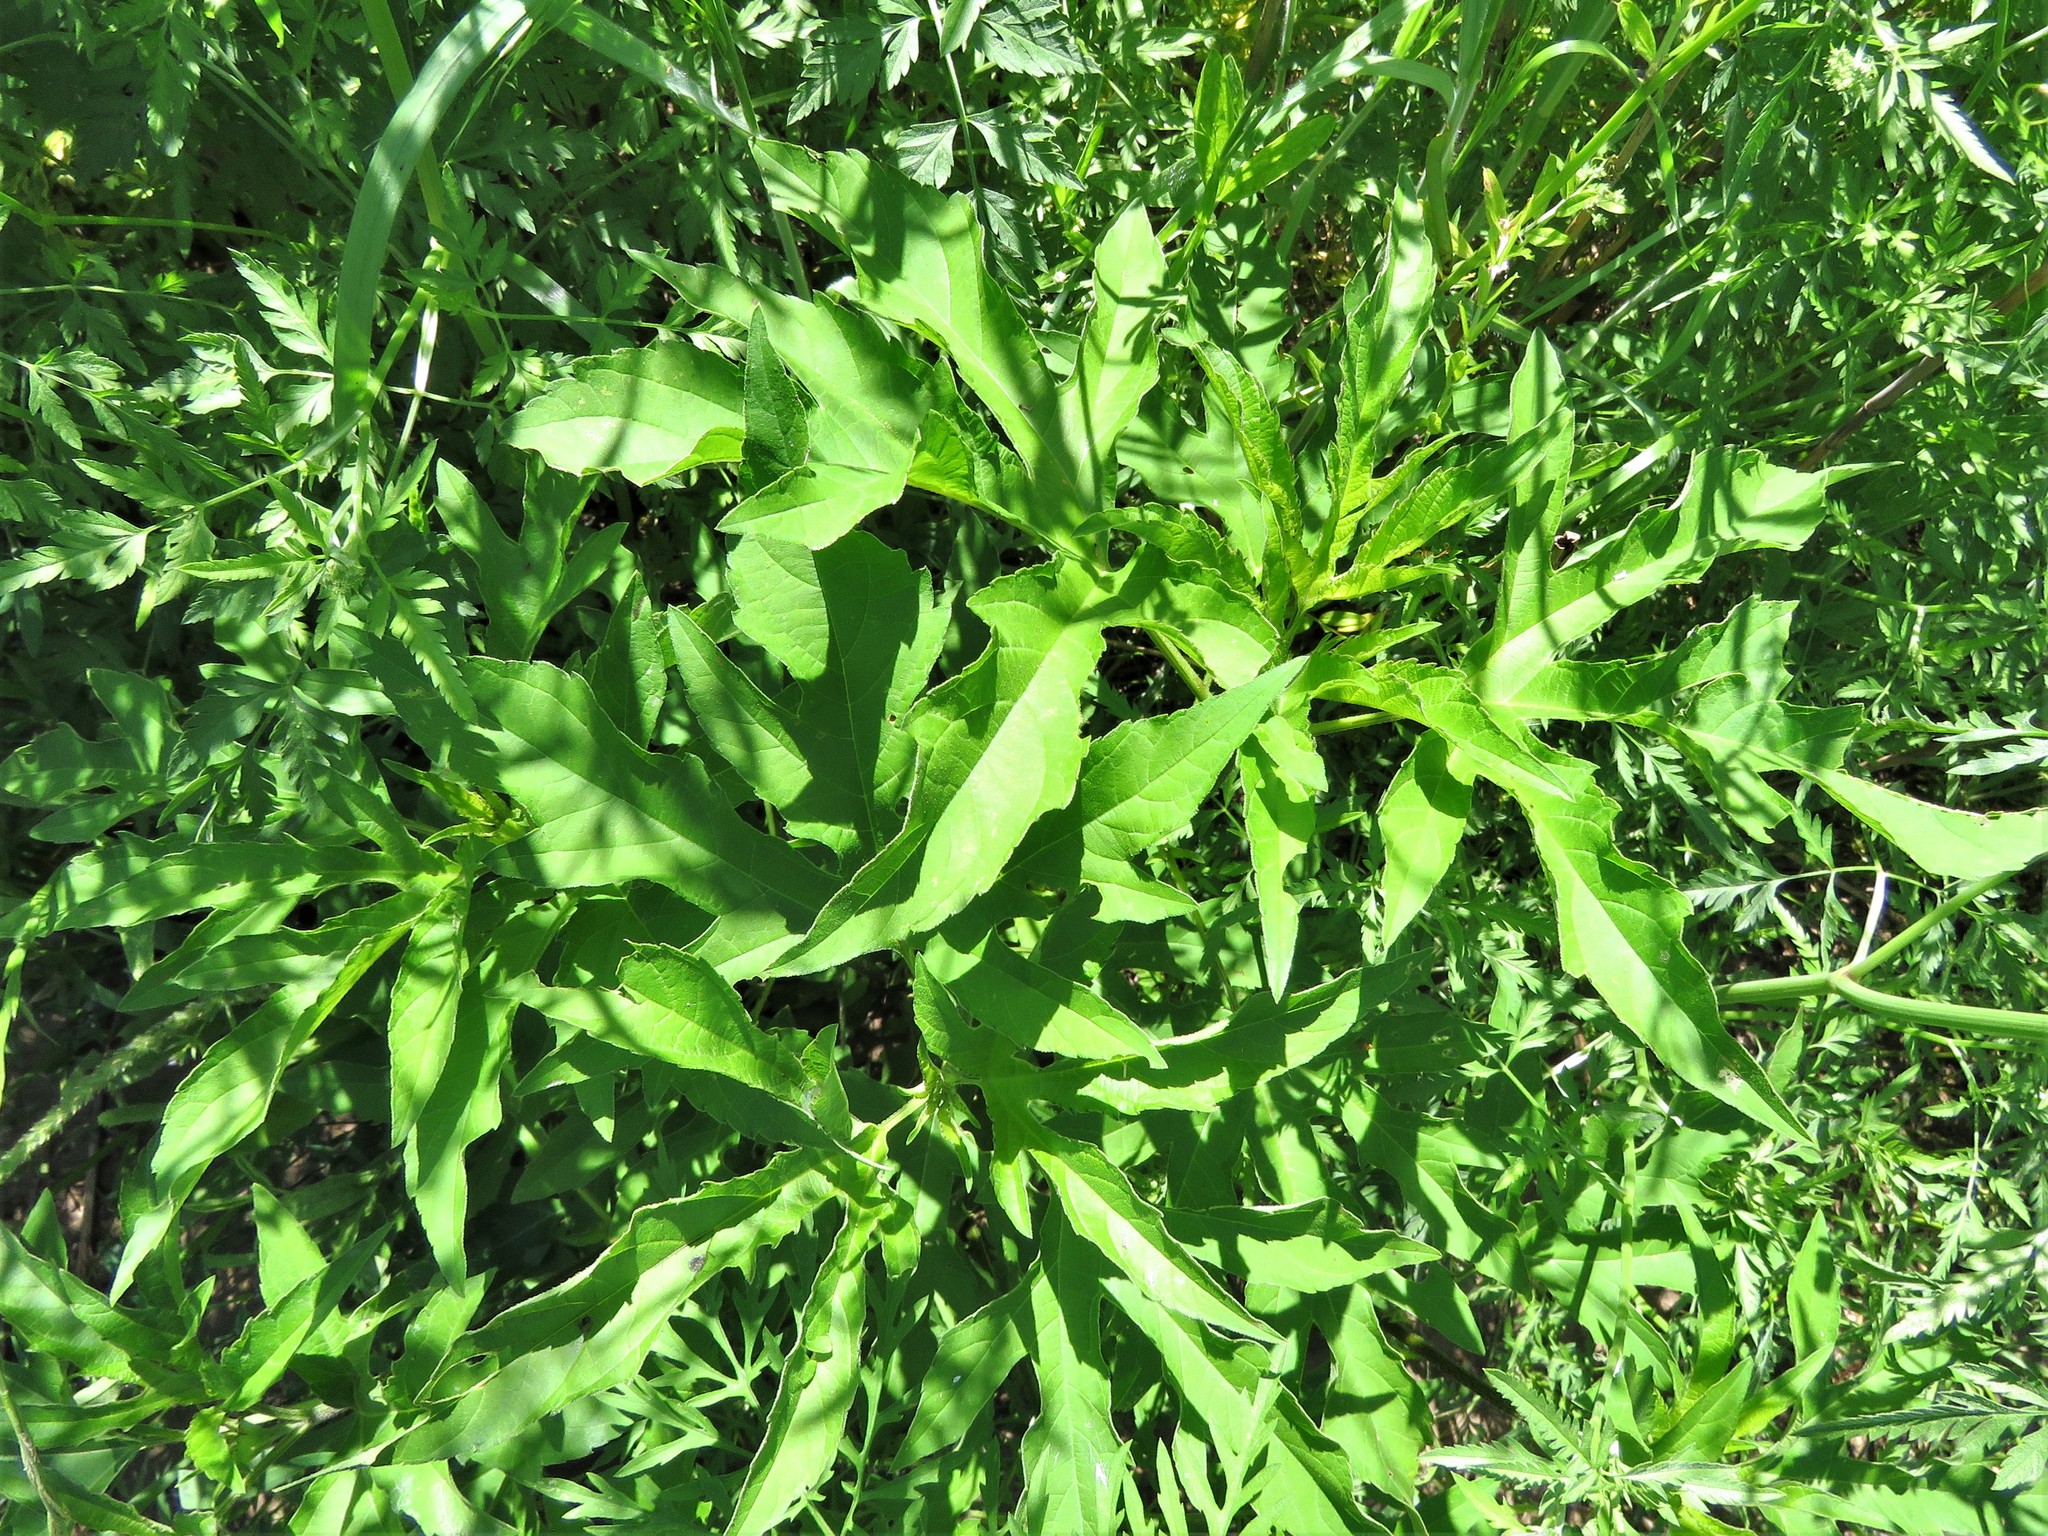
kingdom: Plantae
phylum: Tracheophyta
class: Magnoliopsida
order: Asterales
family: Asteraceae
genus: Ambrosia
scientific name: Ambrosia trifida
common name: Giant ragweed
